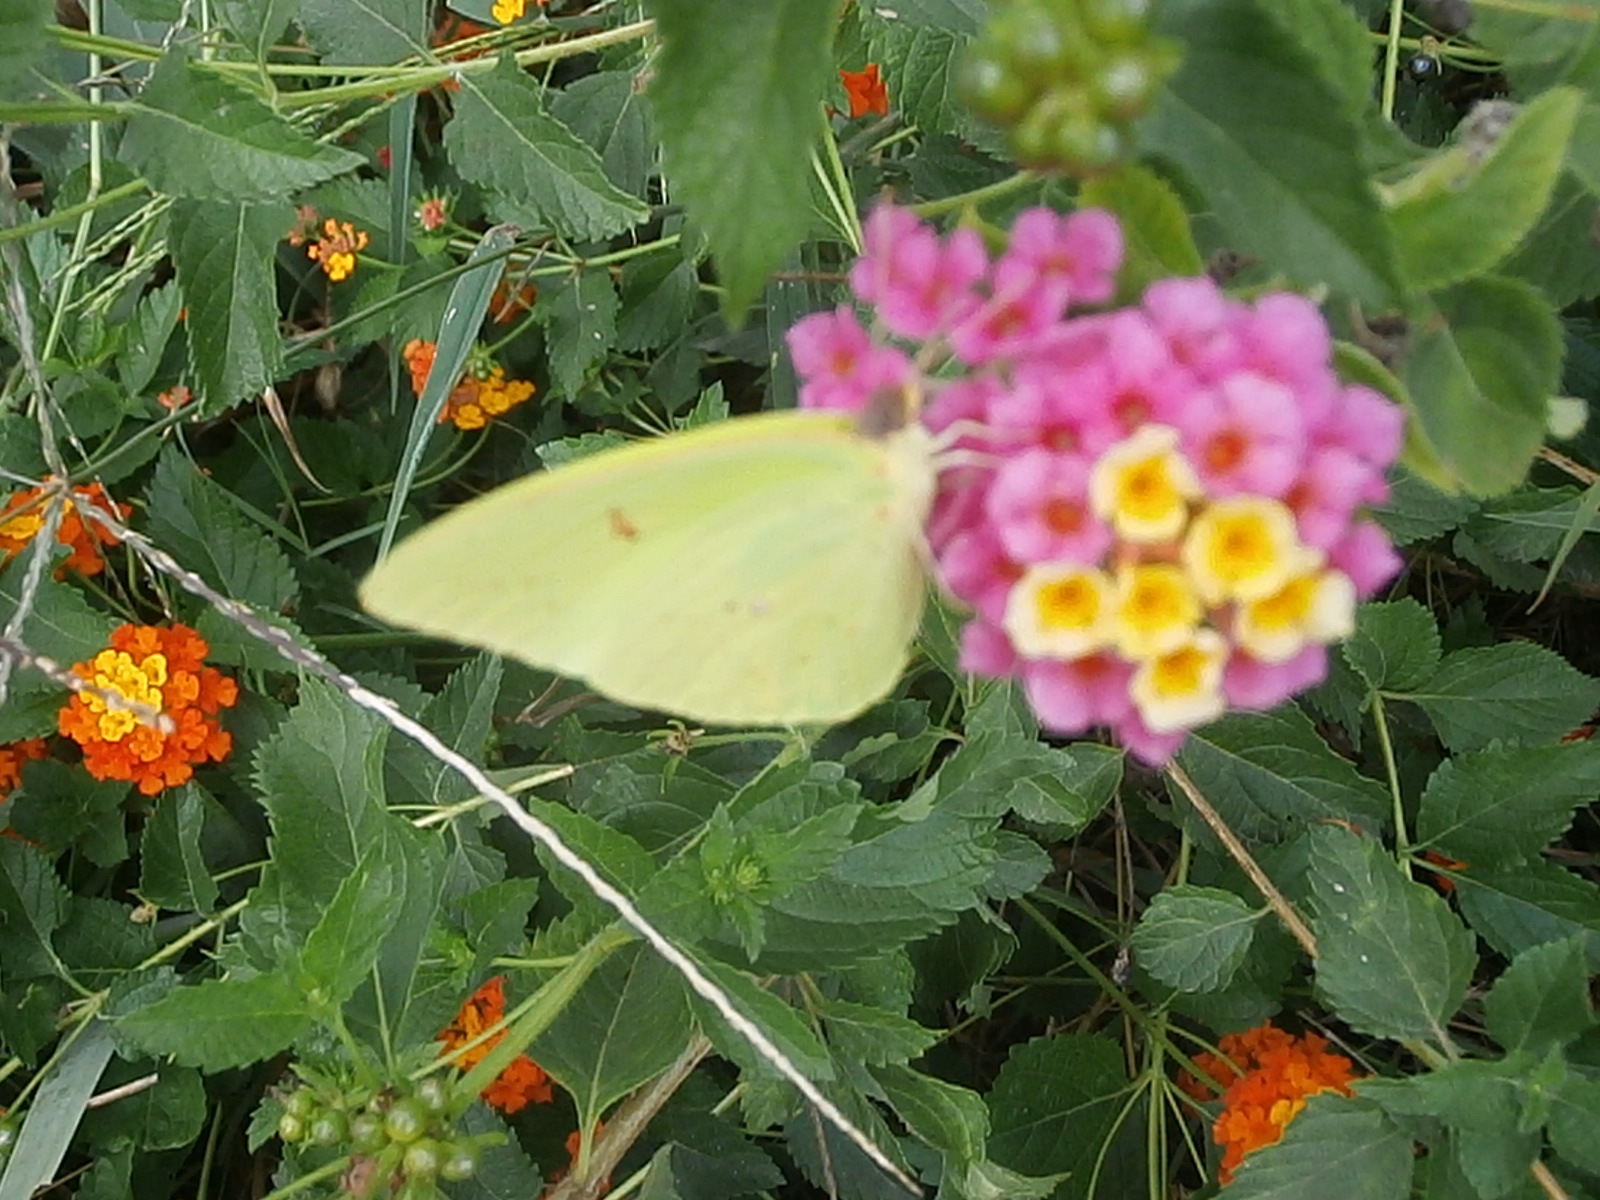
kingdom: Animalia
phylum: Arthropoda
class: Insecta
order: Lepidoptera
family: Pieridae
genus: Phoebis
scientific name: Phoebis sennae
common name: Cloudless sulphur
